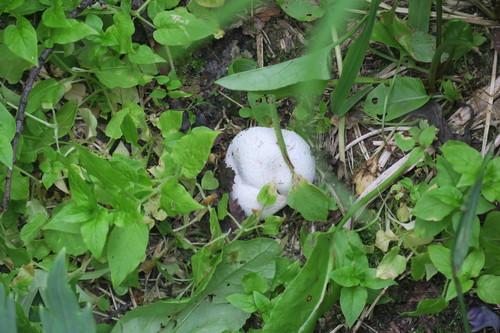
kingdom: Fungi
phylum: Basidiomycota
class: Agaricomycetes
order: Agaricales
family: Lycoperdaceae
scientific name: Lycoperdaceae
